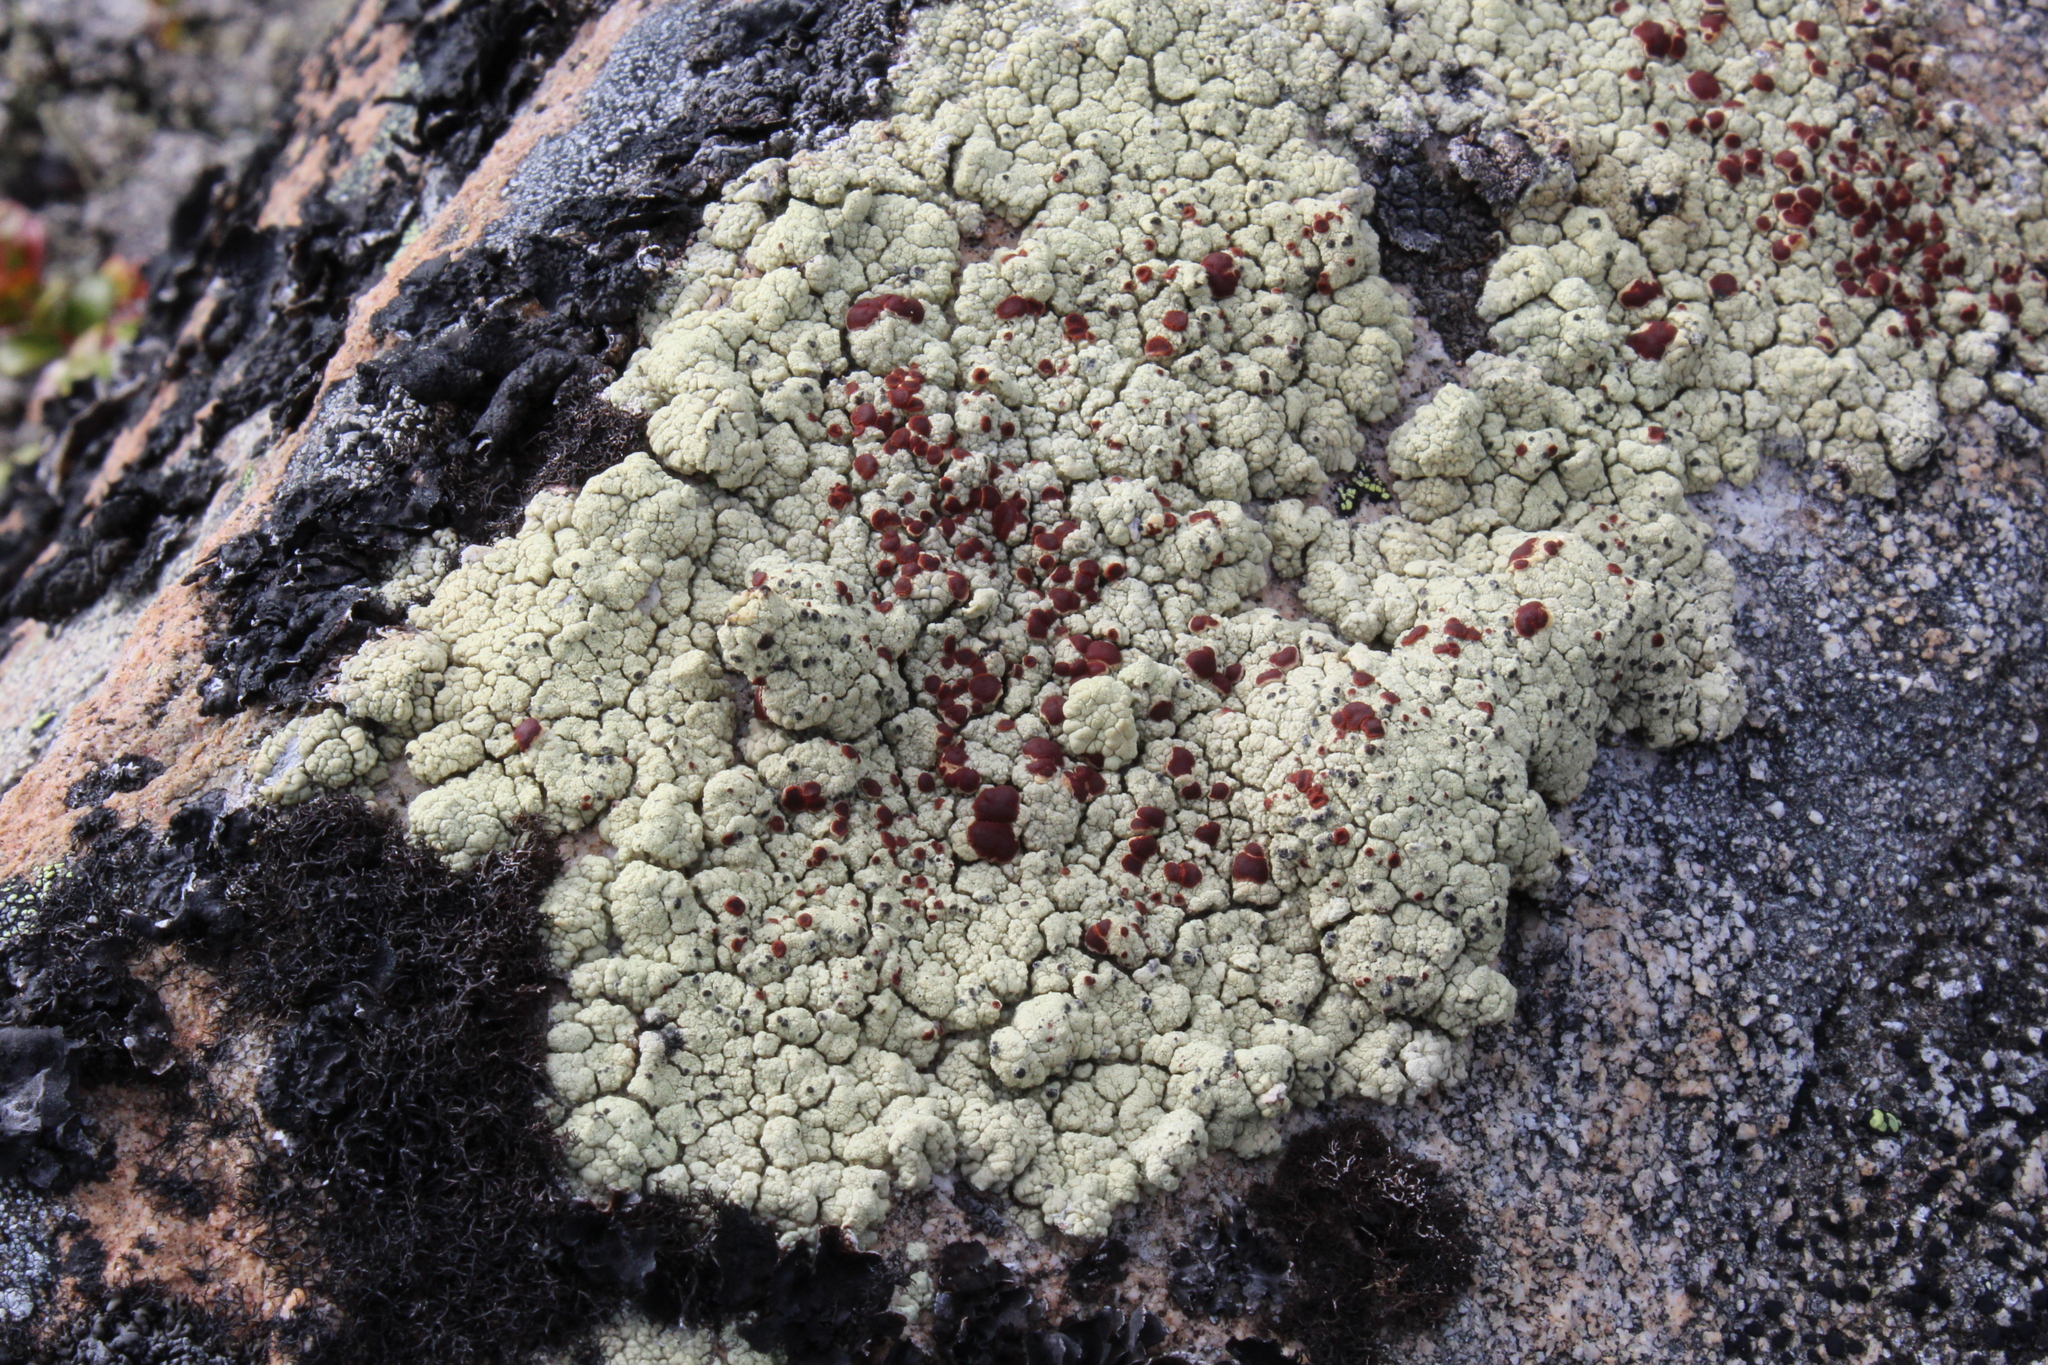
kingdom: Fungi
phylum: Ascomycota
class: Lecanoromycetes
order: Umbilicariales
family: Ophioparmaceae
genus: Ophioparma
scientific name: Ophioparma ventosa
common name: Blood-spot
